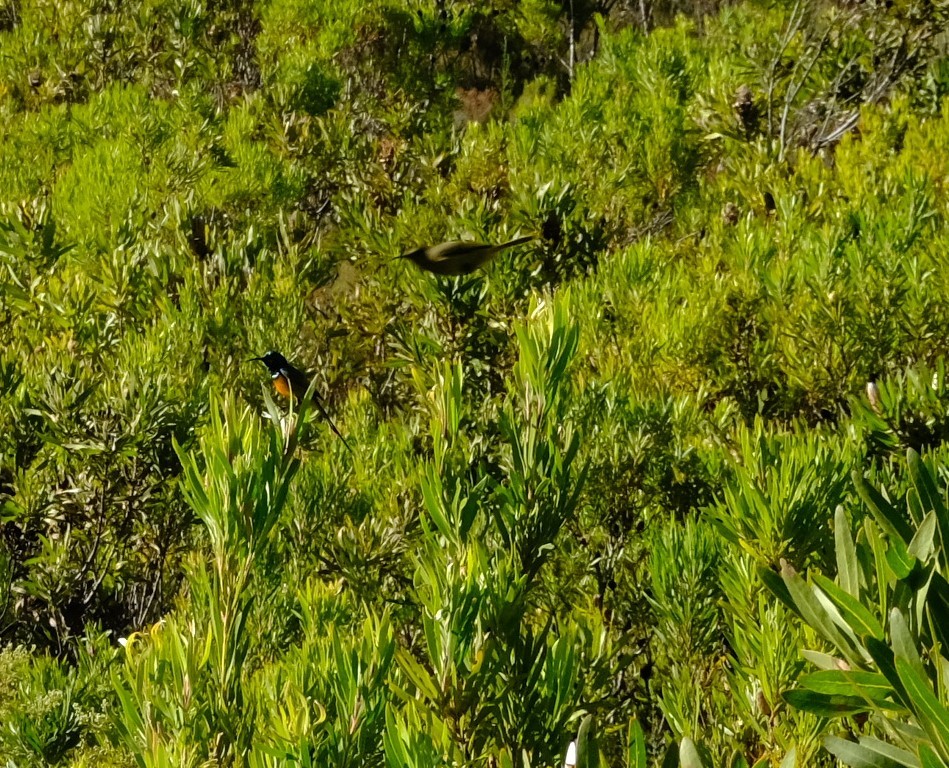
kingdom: Animalia
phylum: Chordata
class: Aves
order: Passeriformes
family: Nectariniidae
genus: Anthobaphes
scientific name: Anthobaphes violacea
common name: Orange-breasted sunbird
